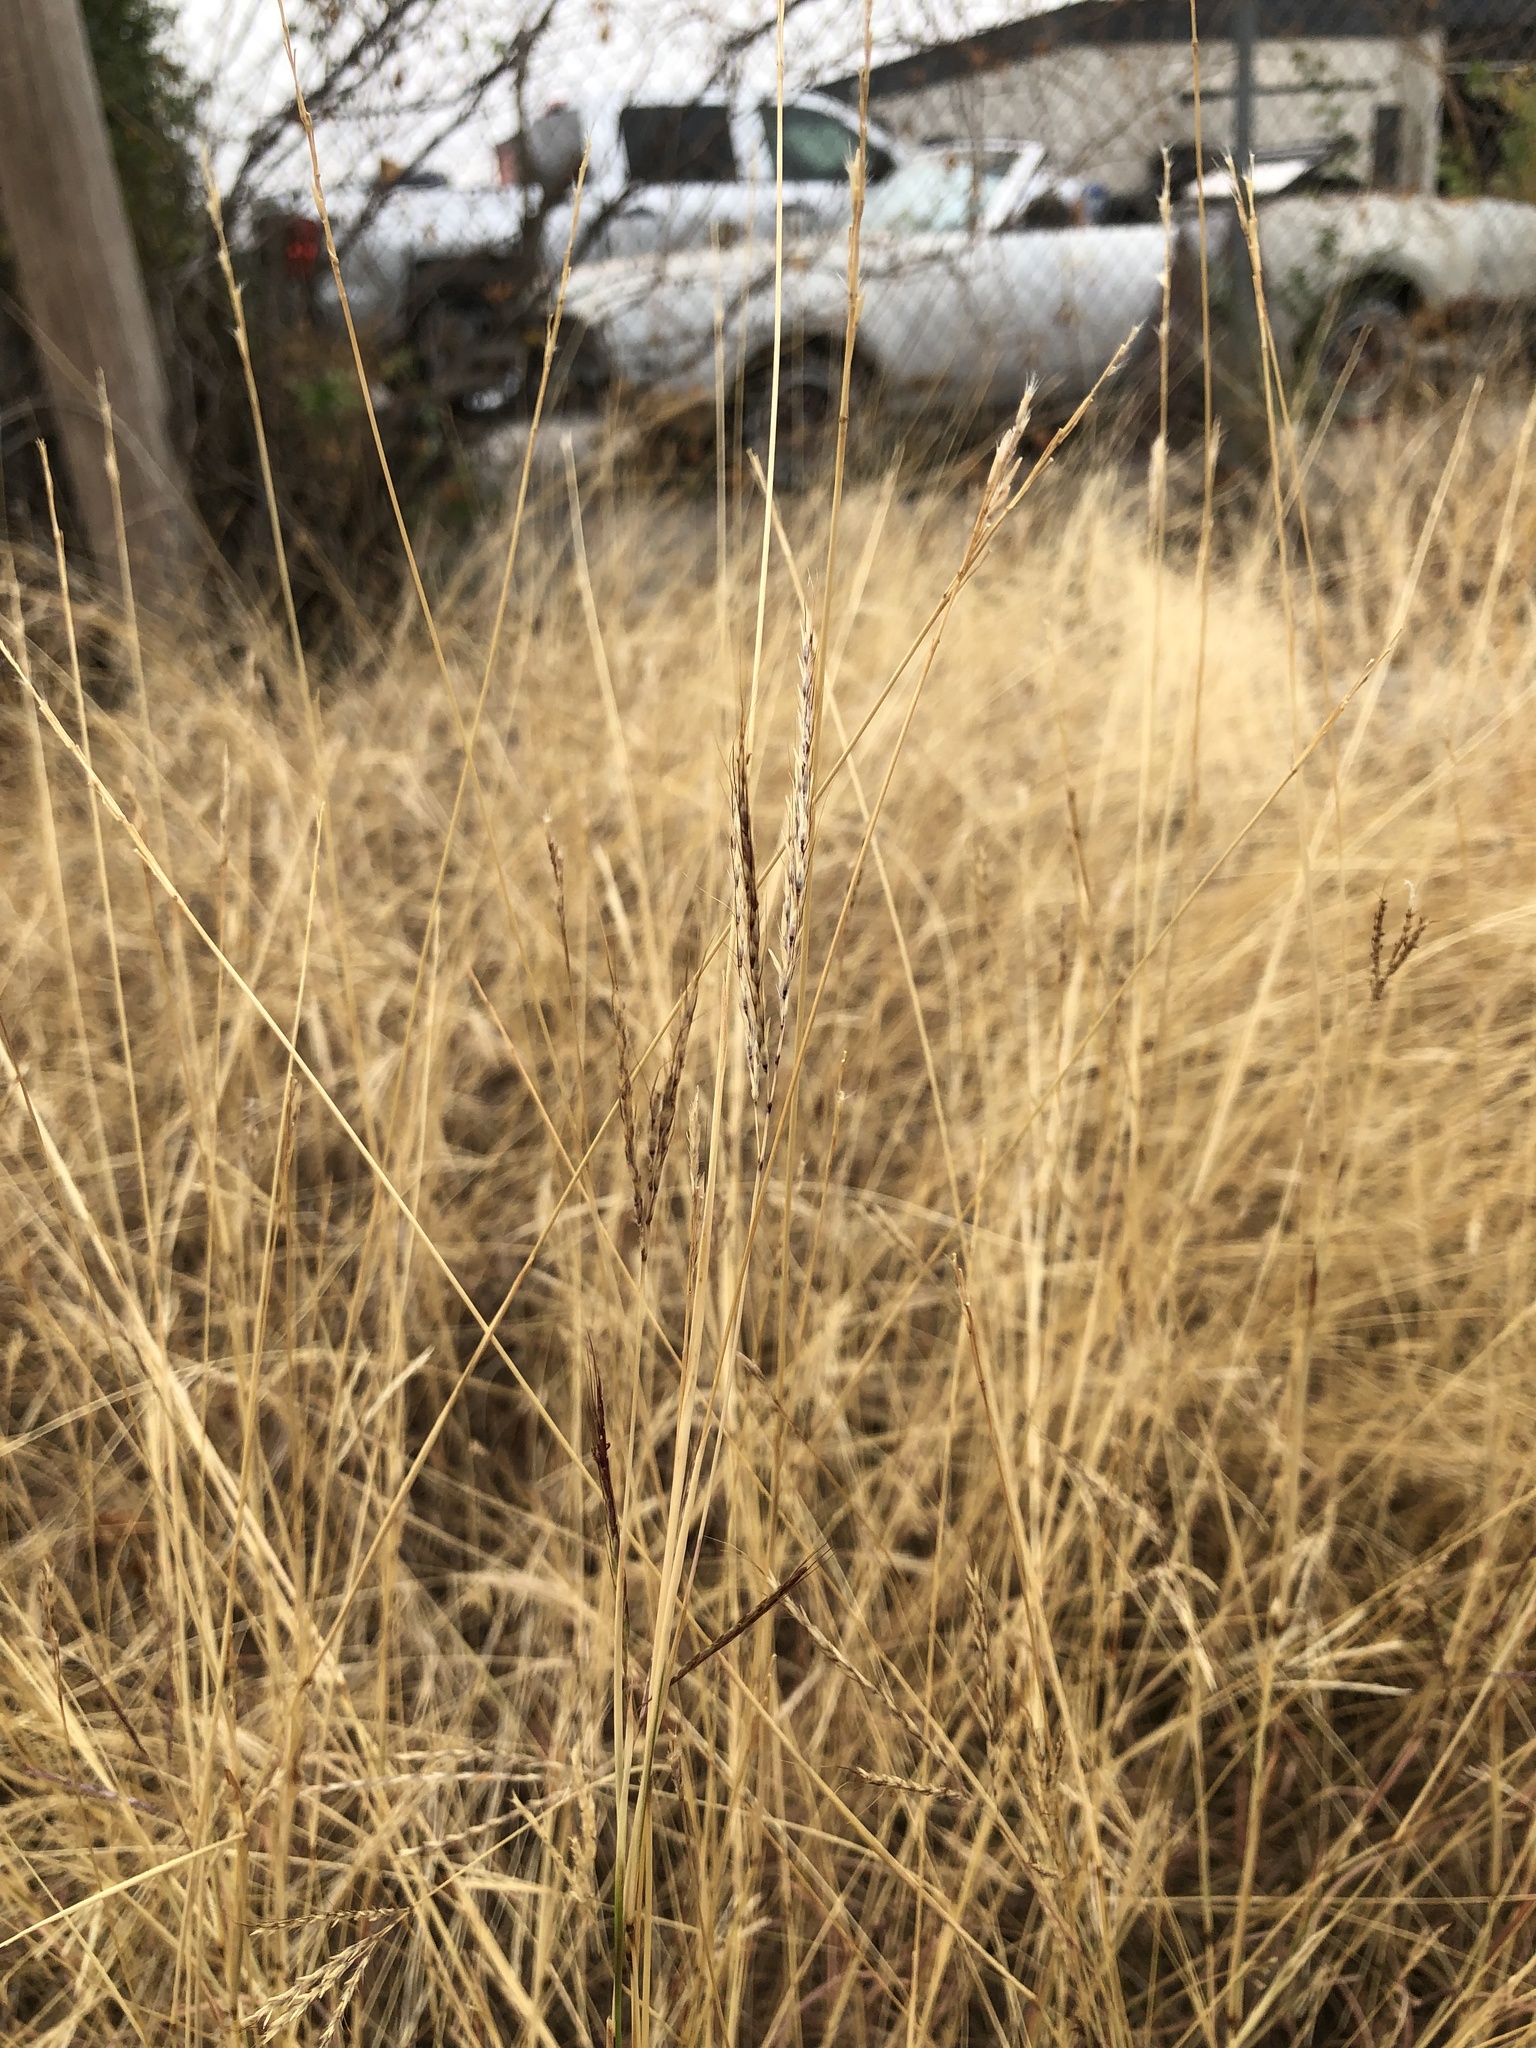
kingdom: Plantae
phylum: Tracheophyta
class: Liliopsida
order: Poales
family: Poaceae
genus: Bothriochloa
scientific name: Bothriochloa ischaemum
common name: Yellow bluestem
